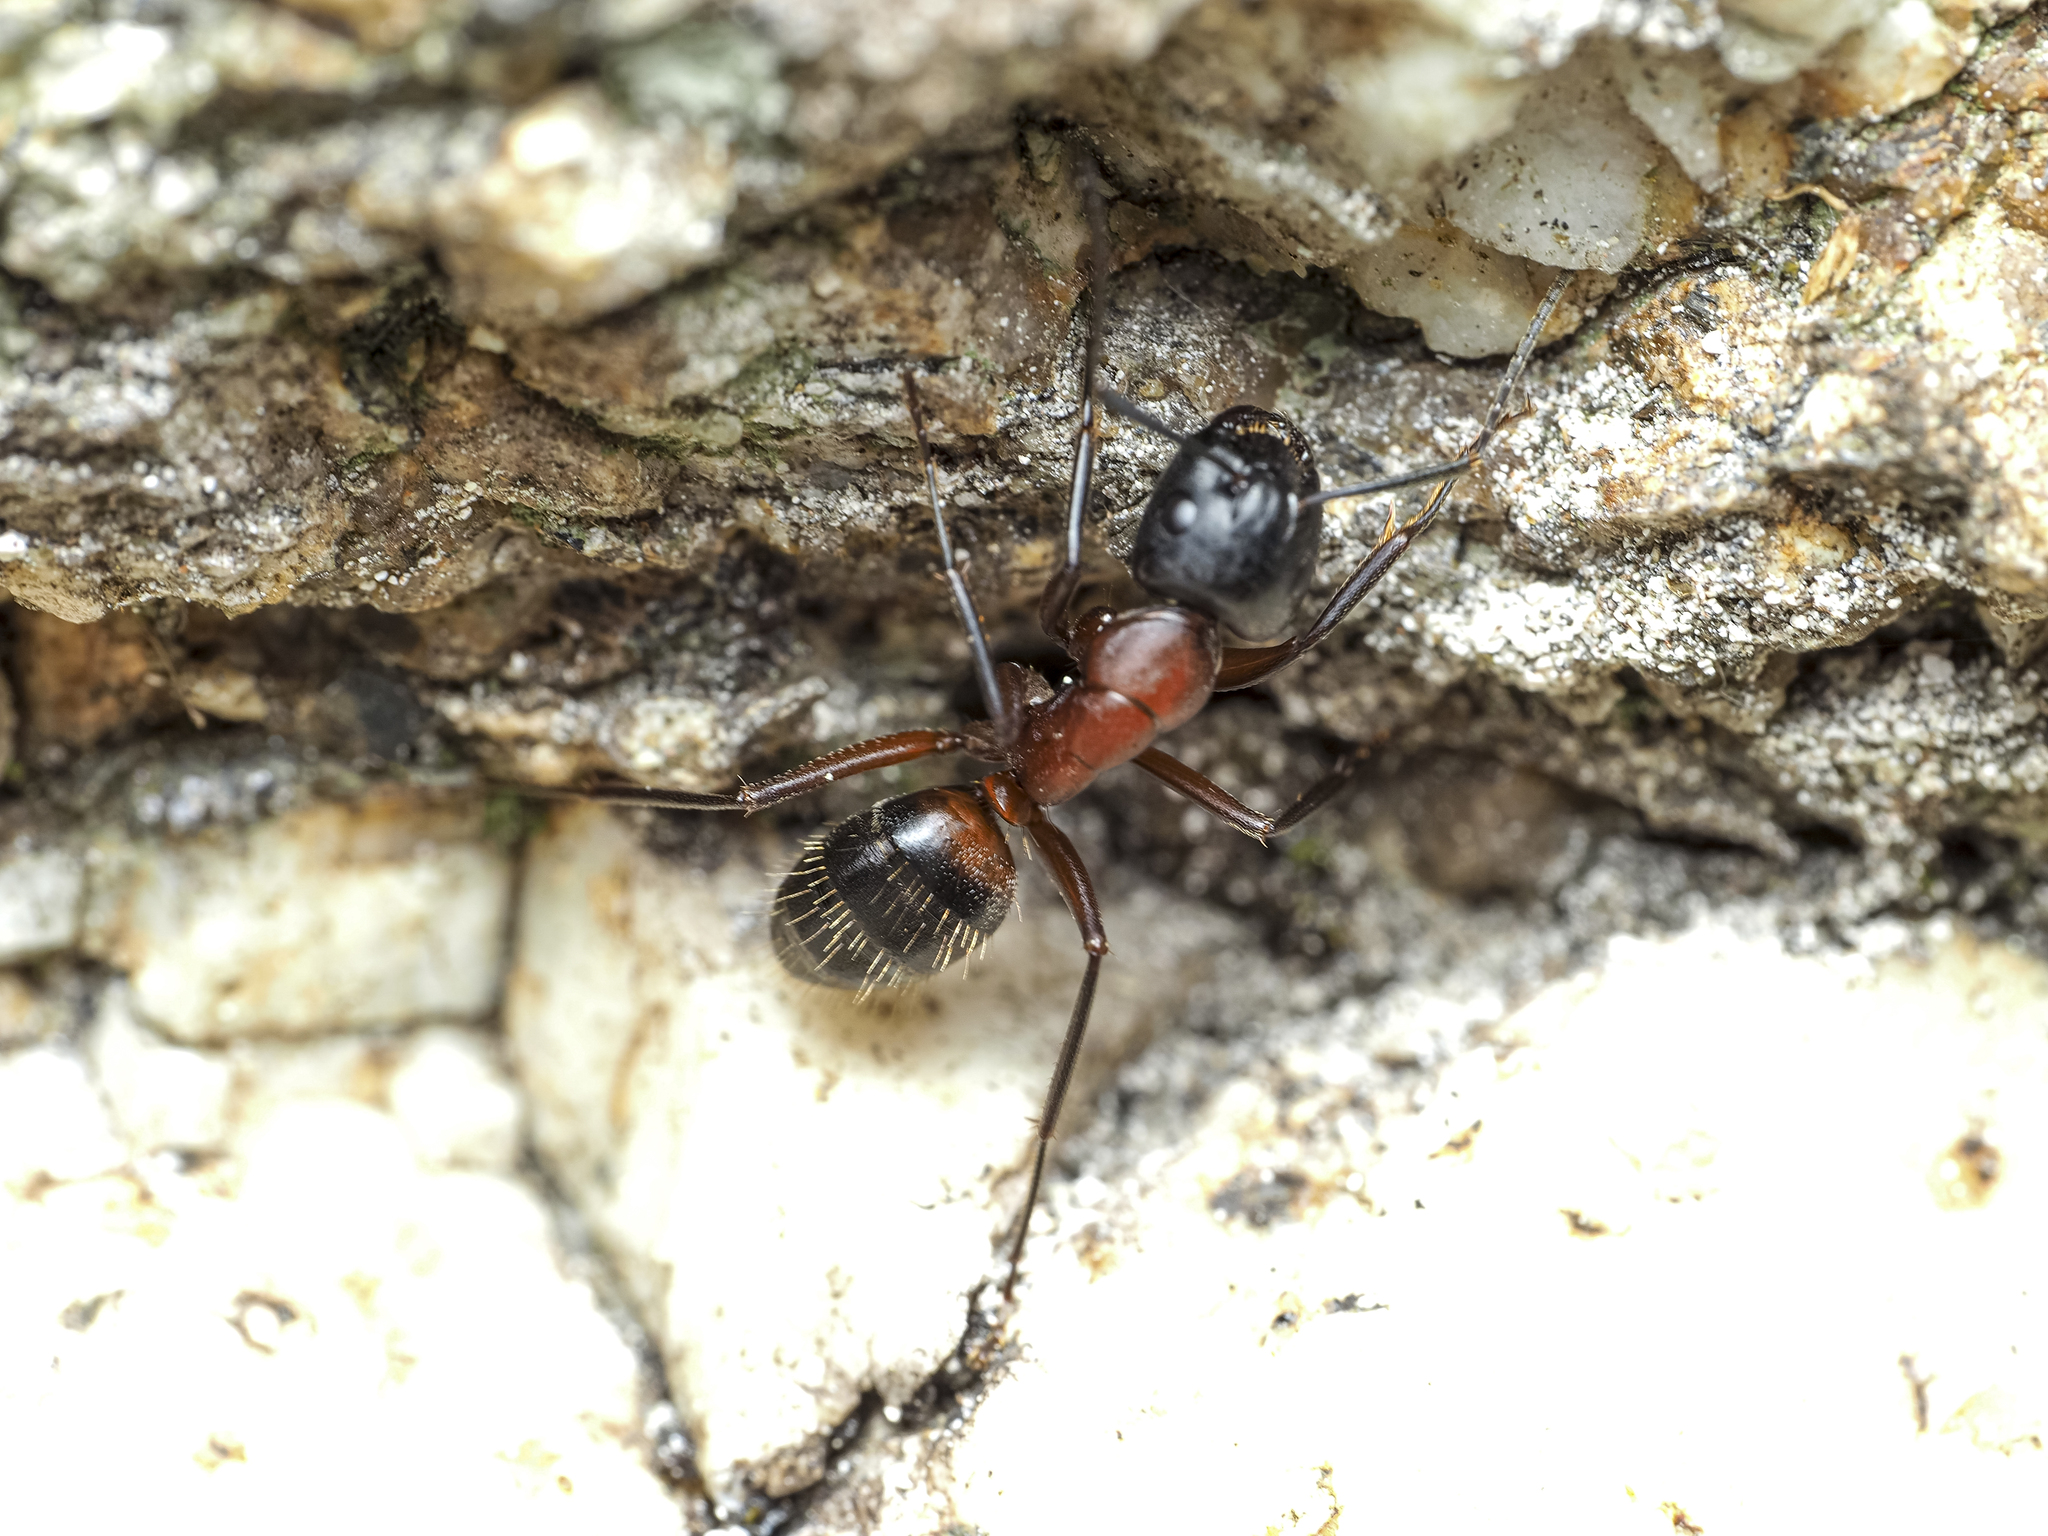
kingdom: Animalia
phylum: Arthropoda
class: Insecta
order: Hymenoptera
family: Formicidae
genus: Camponotus
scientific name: Camponotus ligniperdus
